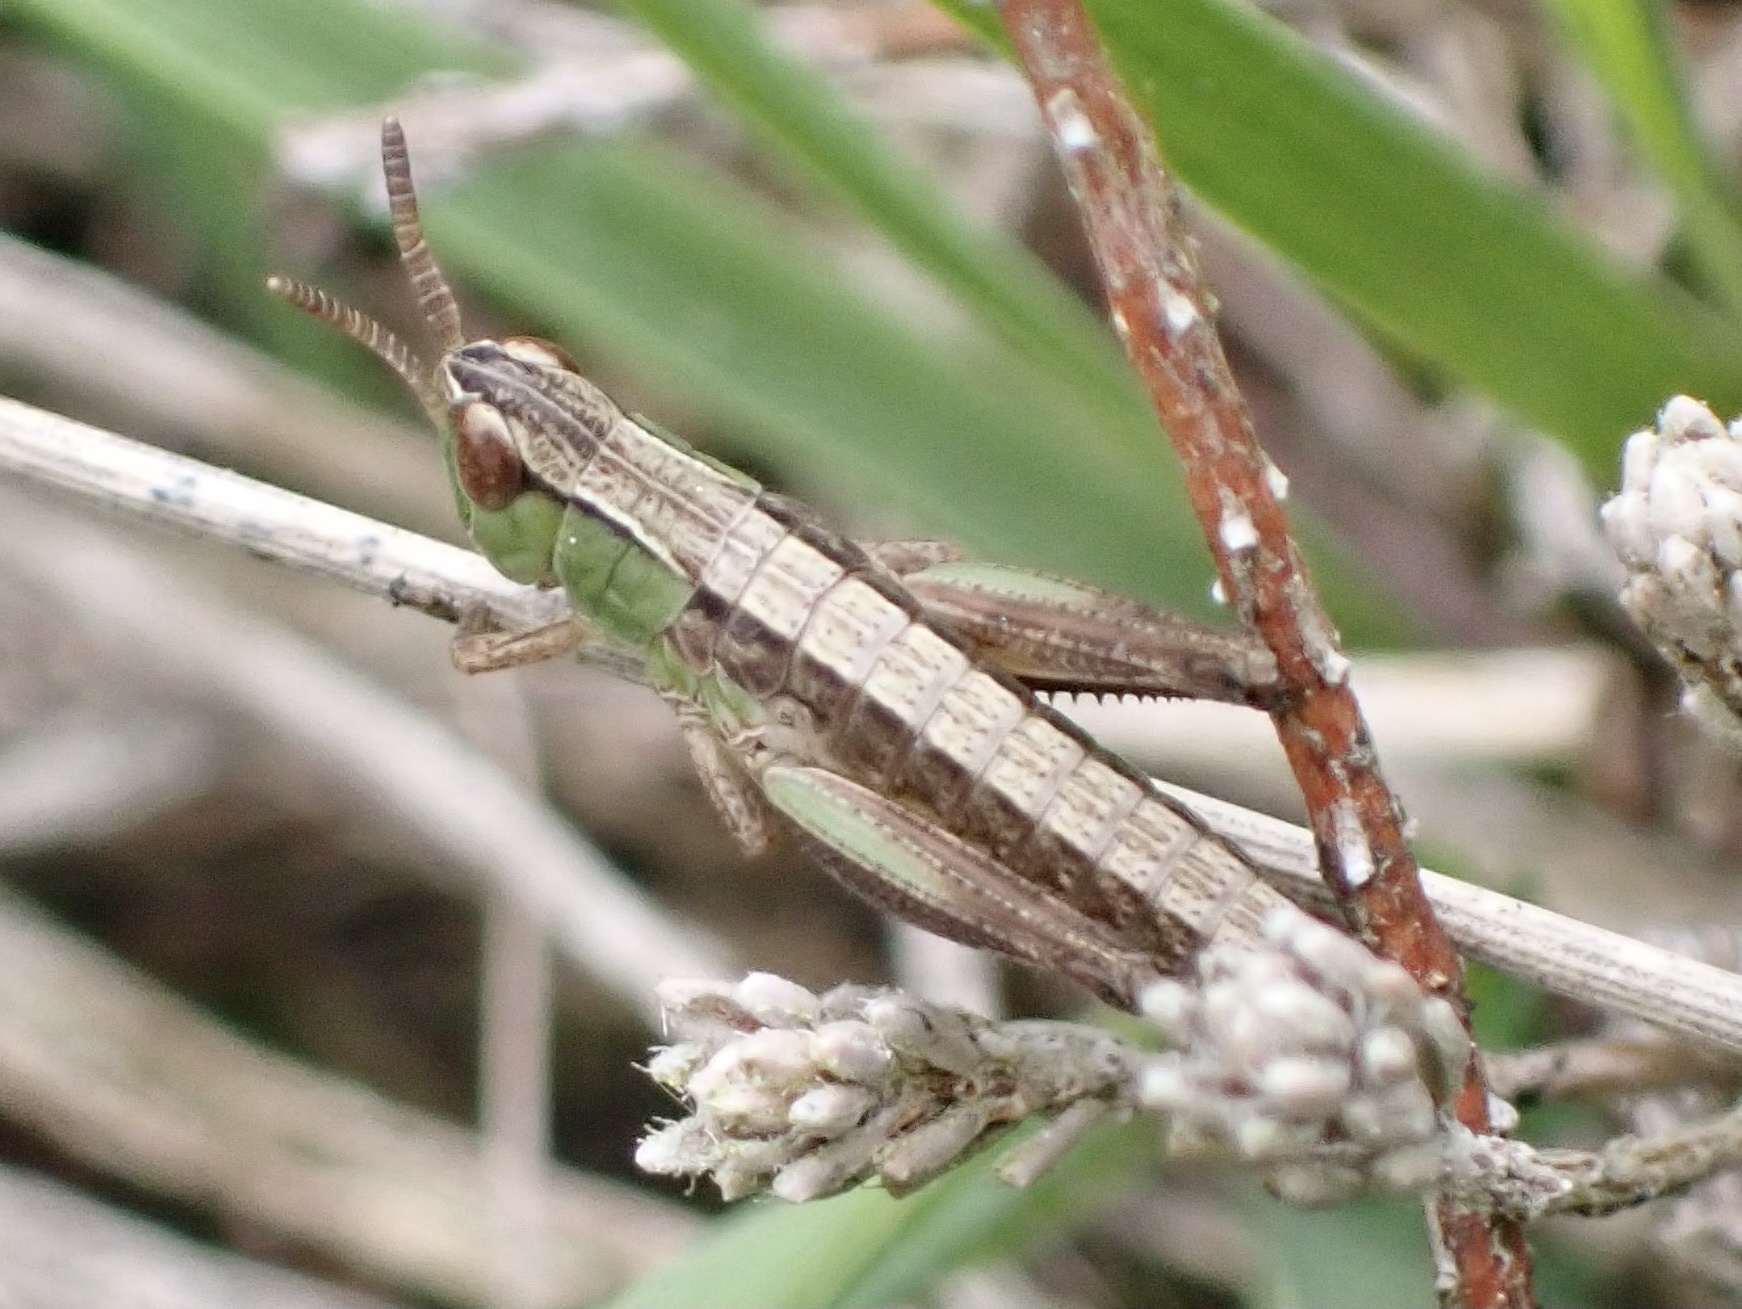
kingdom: Animalia
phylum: Arthropoda
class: Insecta
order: Orthoptera
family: Acrididae
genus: Chorthippus
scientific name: Chorthippus albomarginatus
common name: Lesser marsh grasshopper
